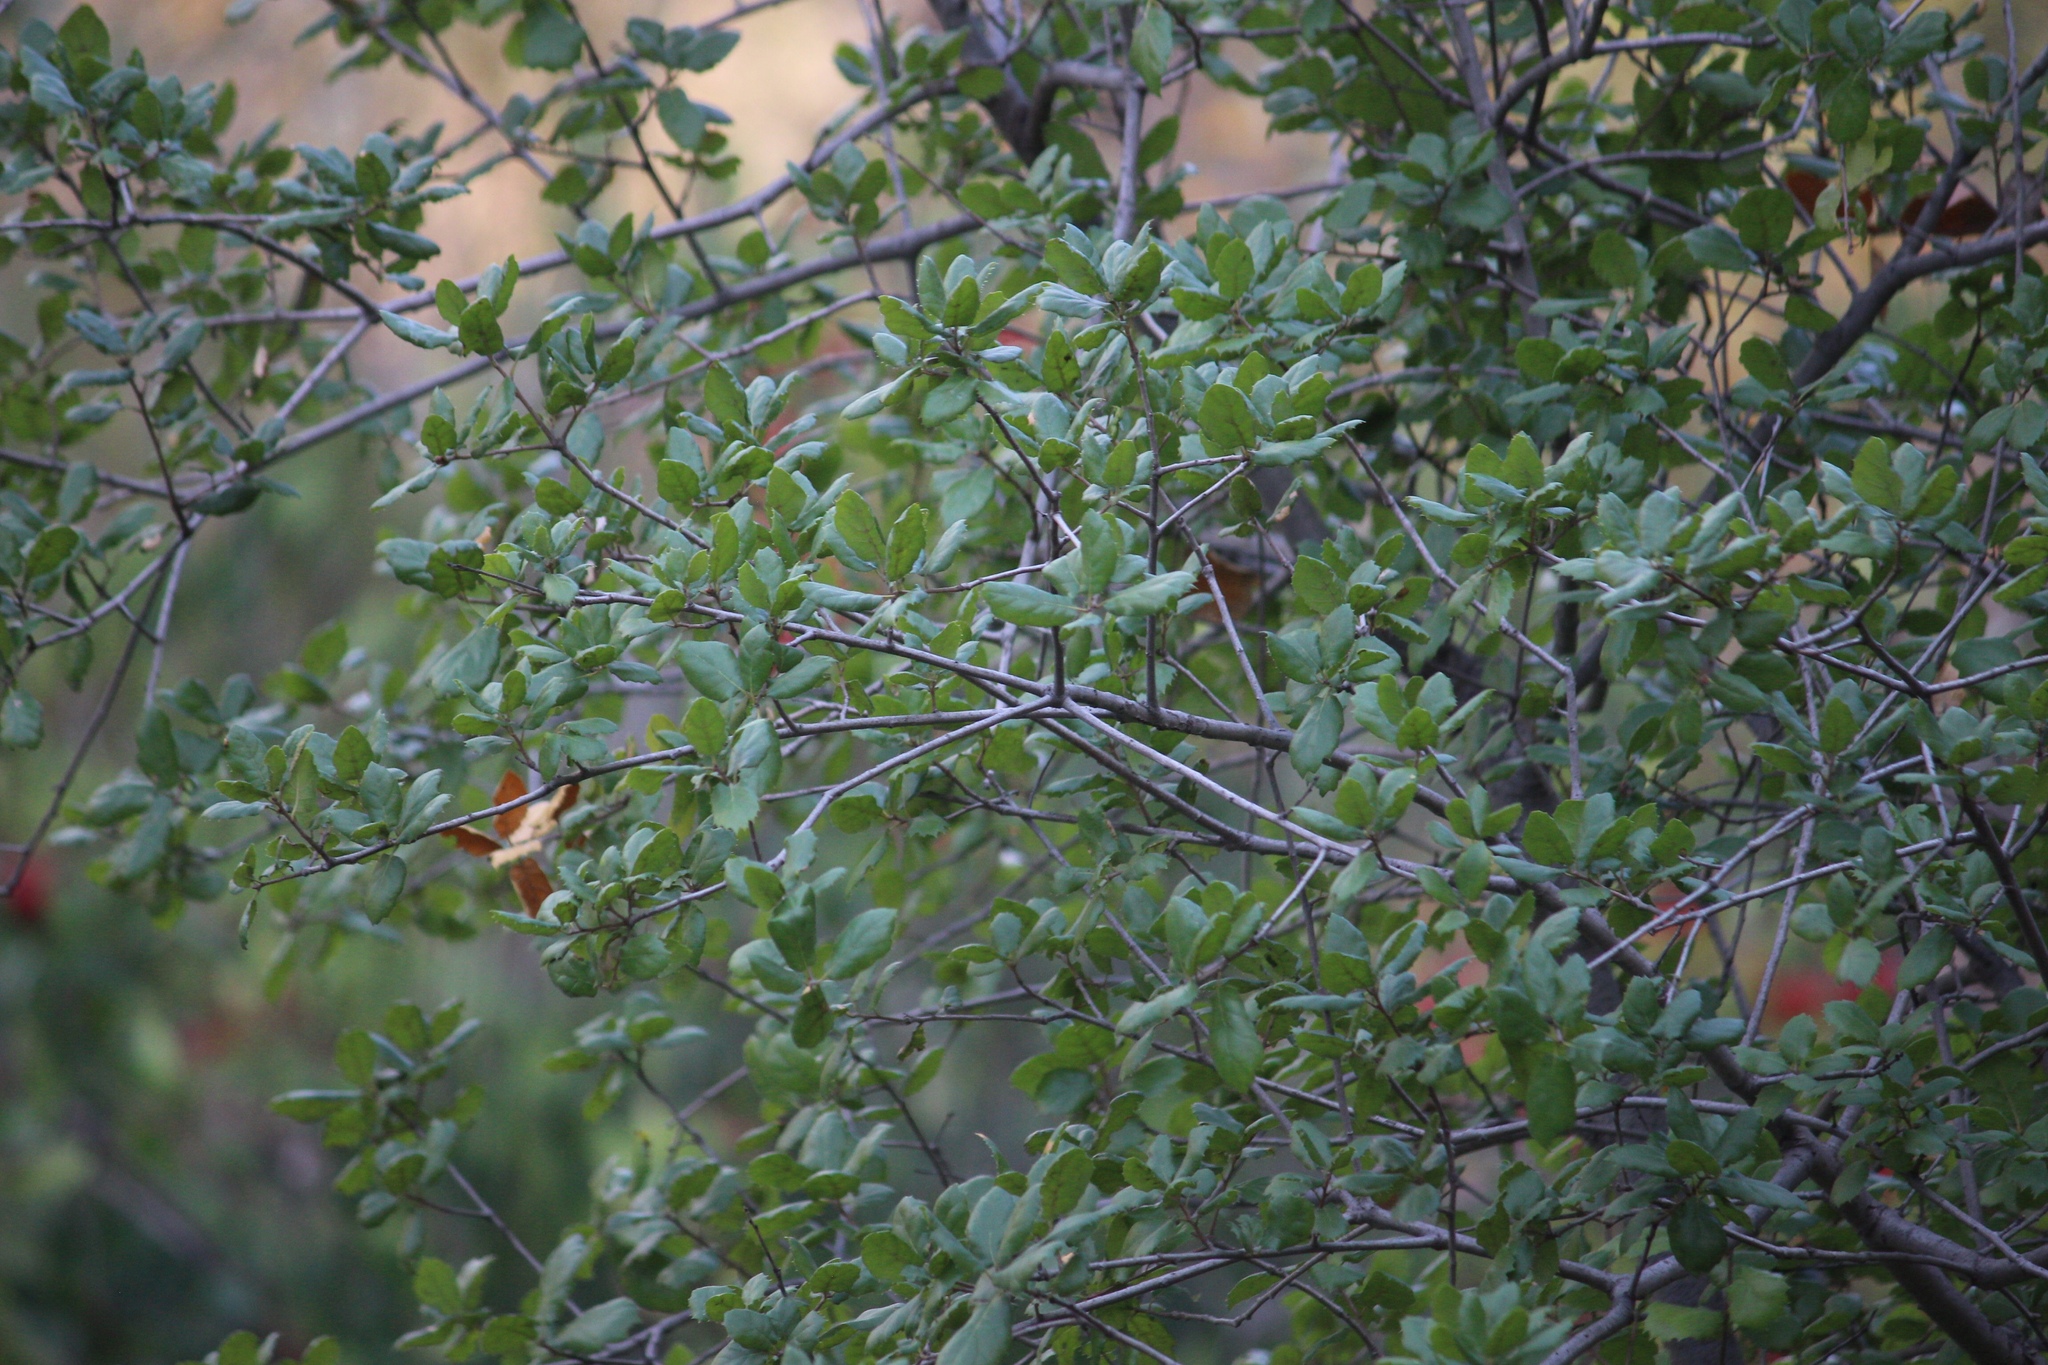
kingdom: Plantae
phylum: Tracheophyta
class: Magnoliopsida
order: Fagales
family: Fagaceae
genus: Quercus
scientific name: Quercus agrifolia
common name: California live oak
